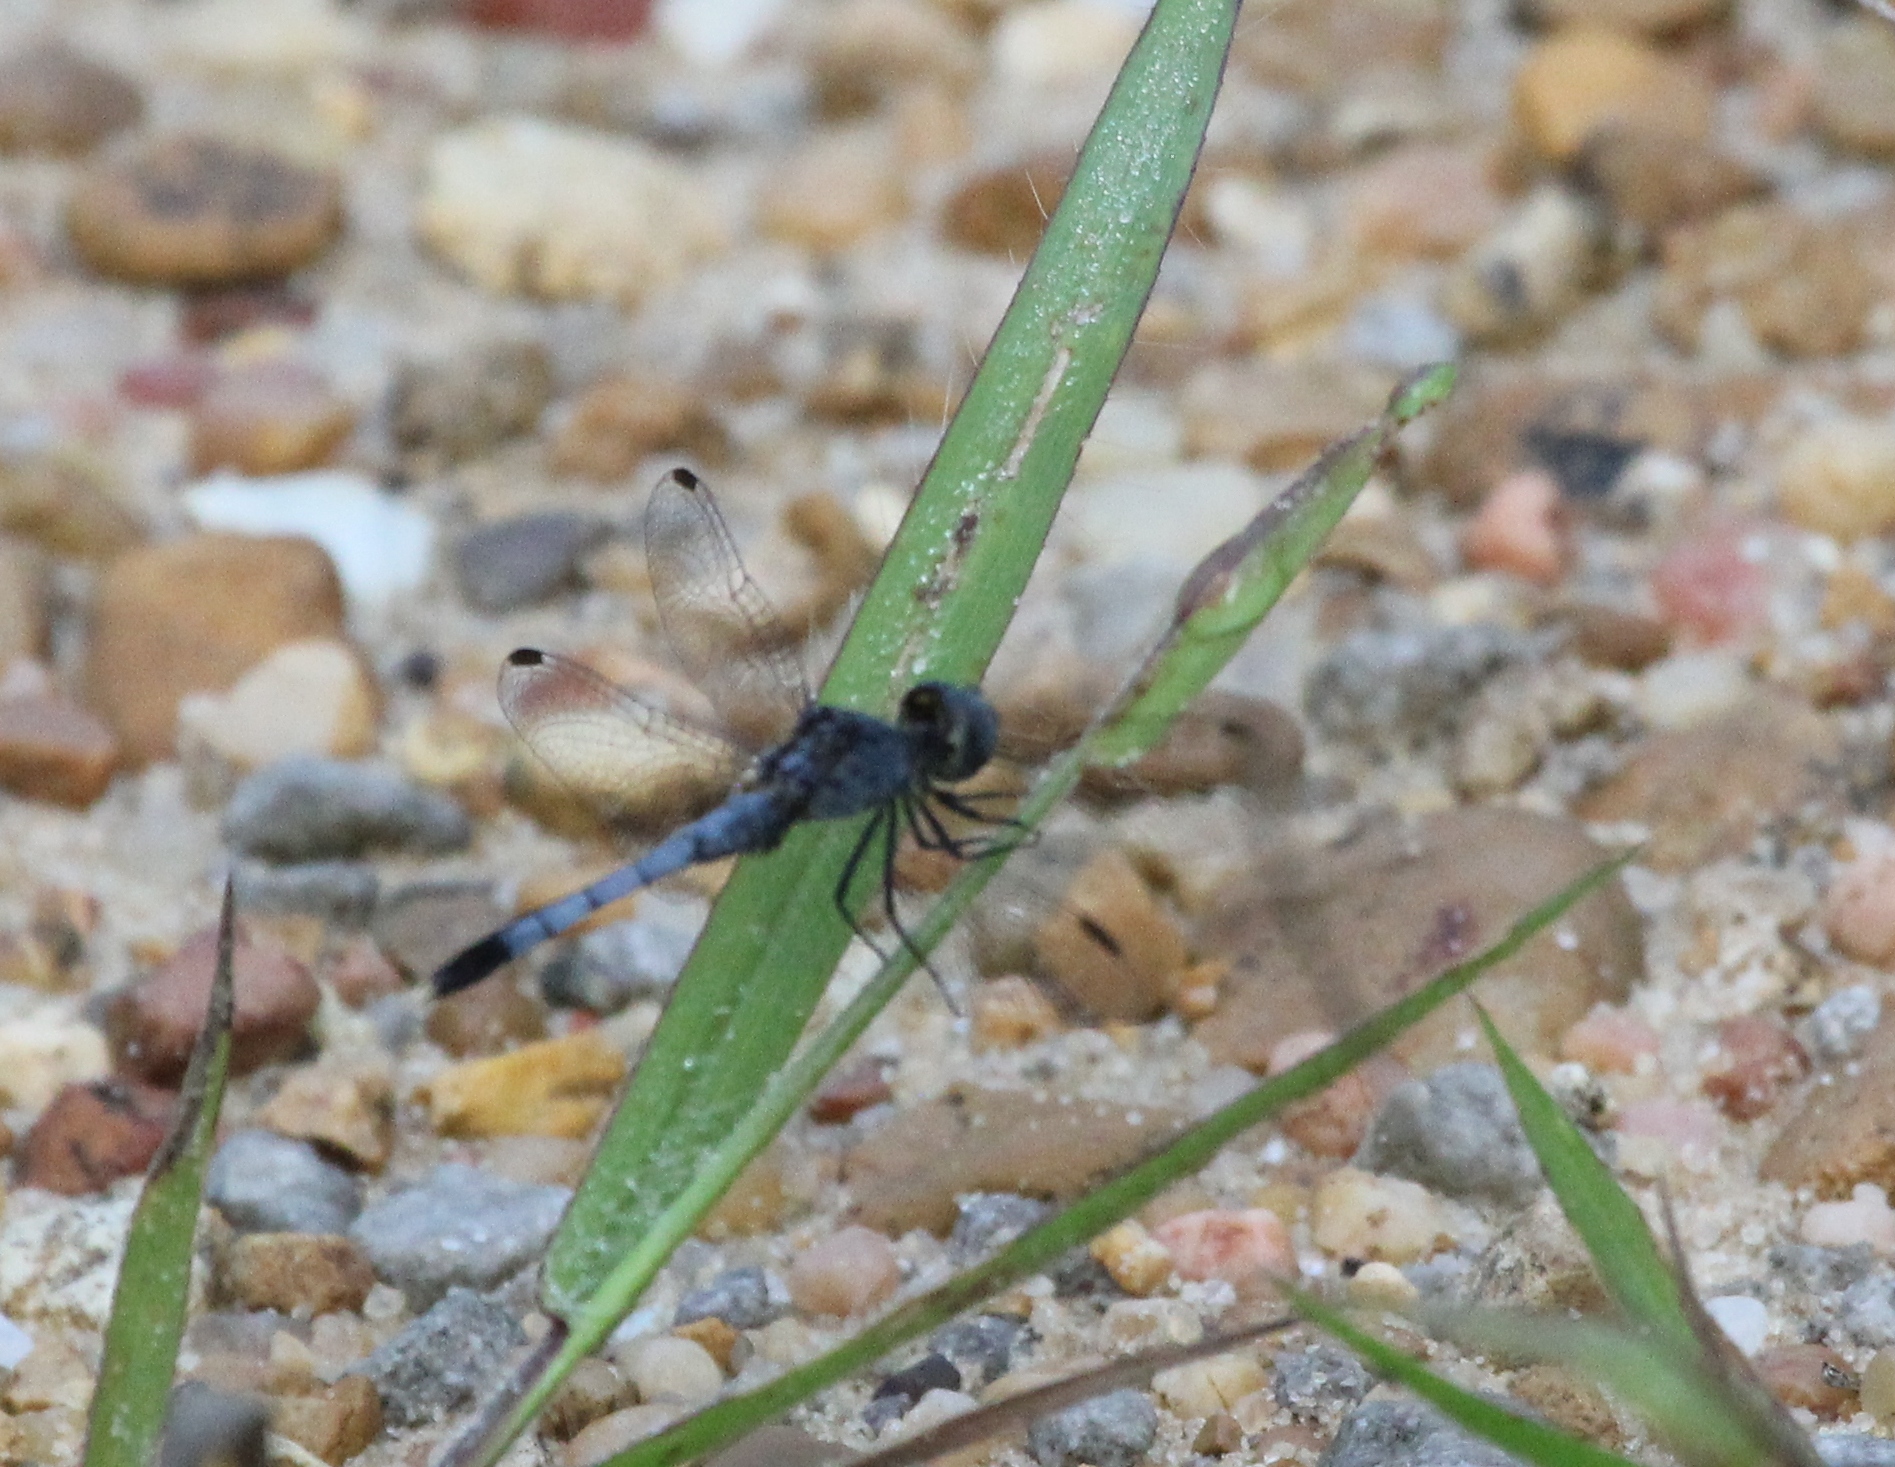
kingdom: Animalia
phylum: Arthropoda
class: Insecta
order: Odonata
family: Libellulidae
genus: Erythrodiplax
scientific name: Erythrodiplax minuscula
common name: Little blue dragonlet
